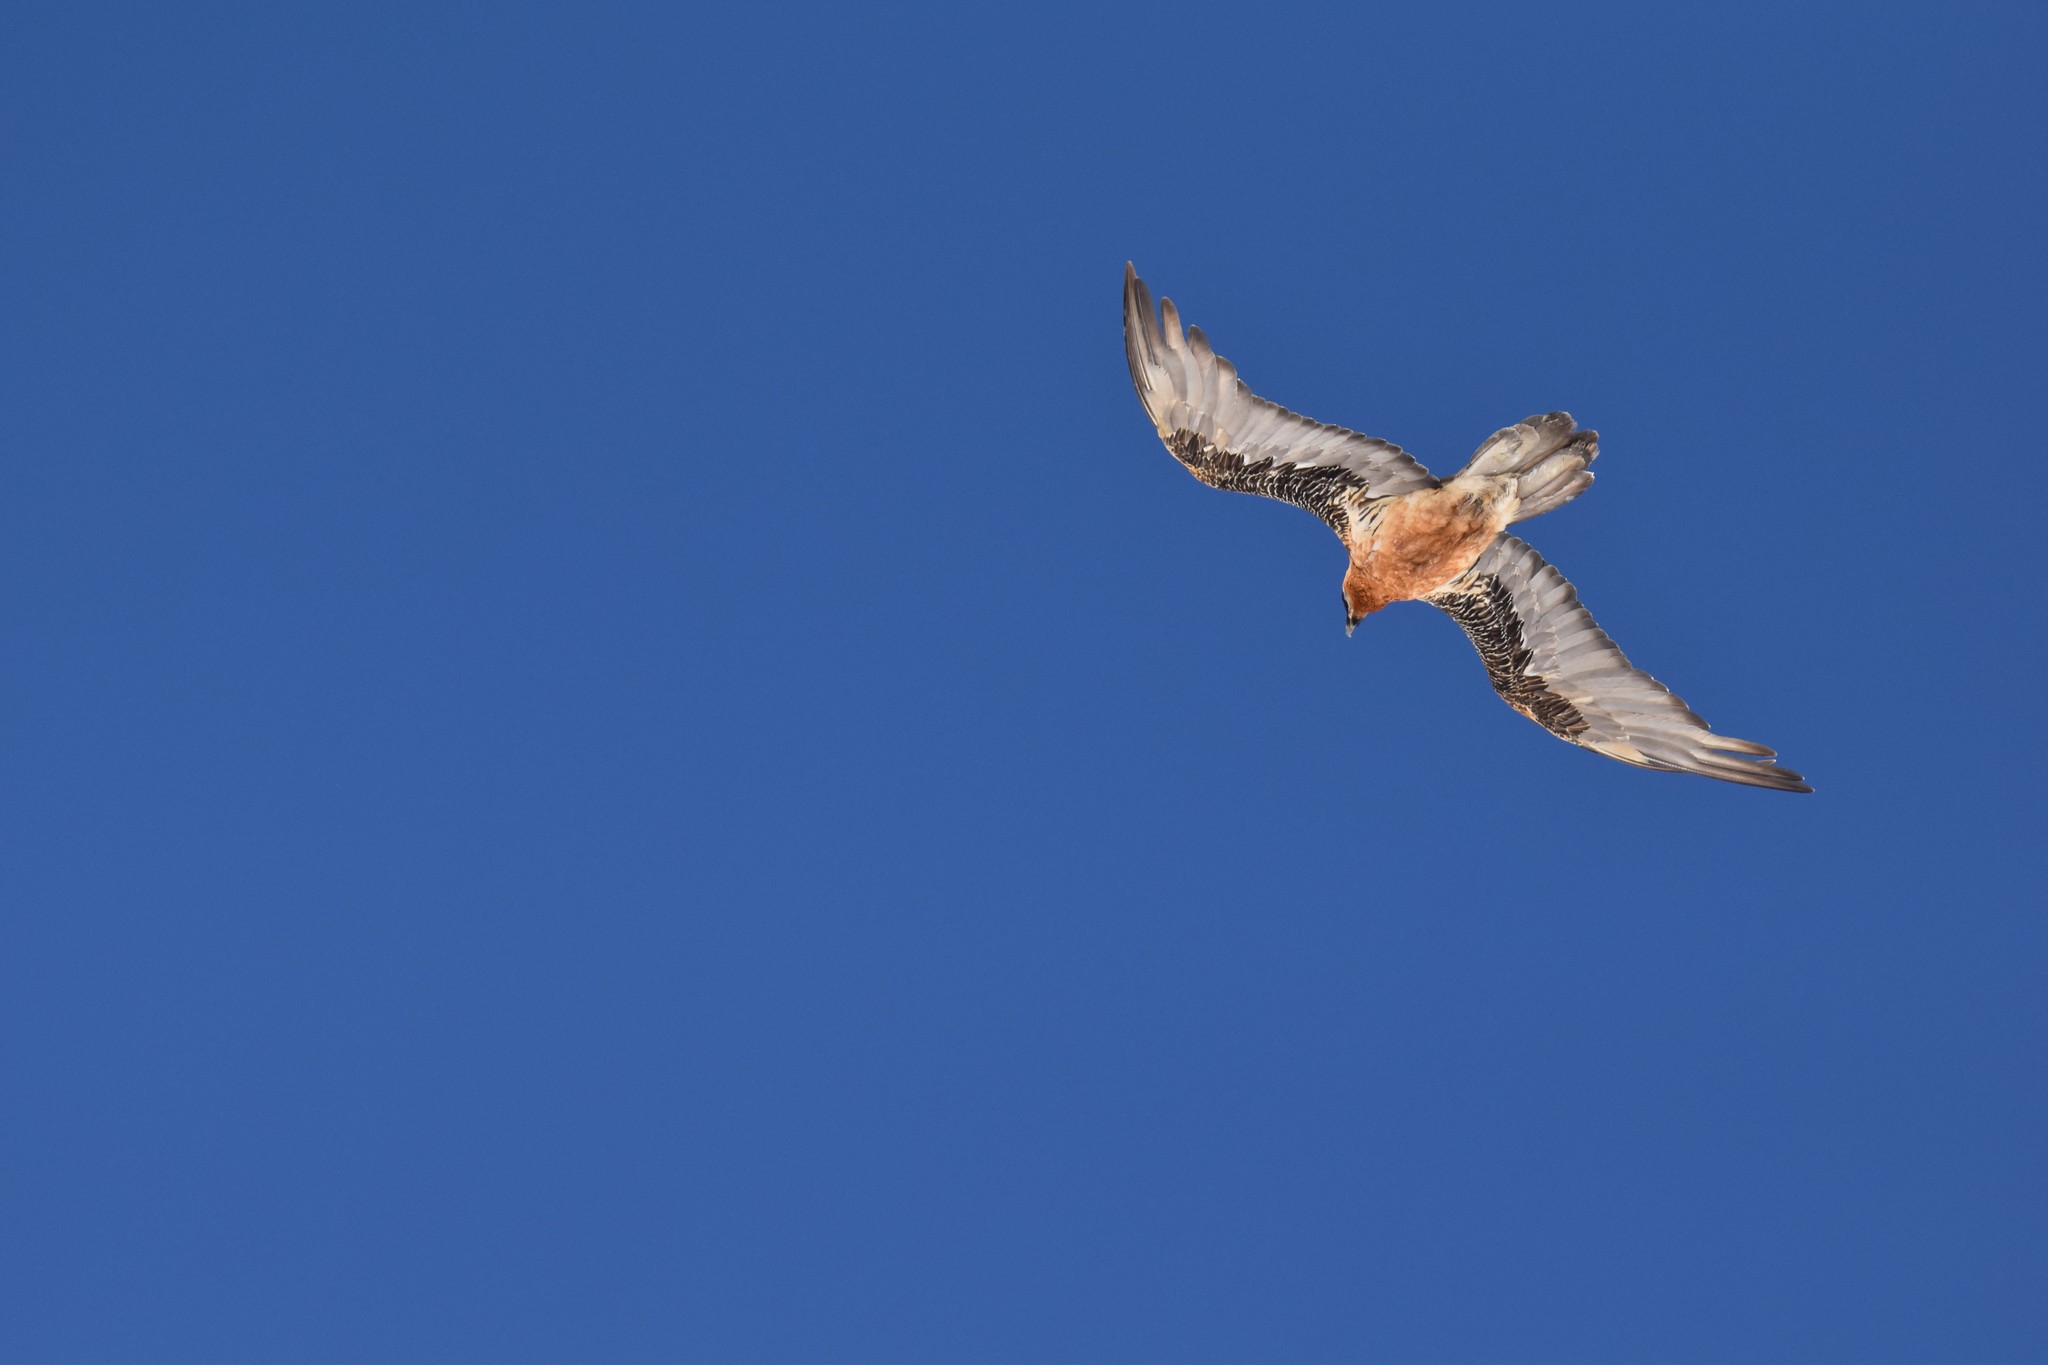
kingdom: Animalia
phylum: Chordata
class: Aves
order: Accipitriformes
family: Accipitridae
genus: Gypaetus
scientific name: Gypaetus barbatus
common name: Bearded vulture
